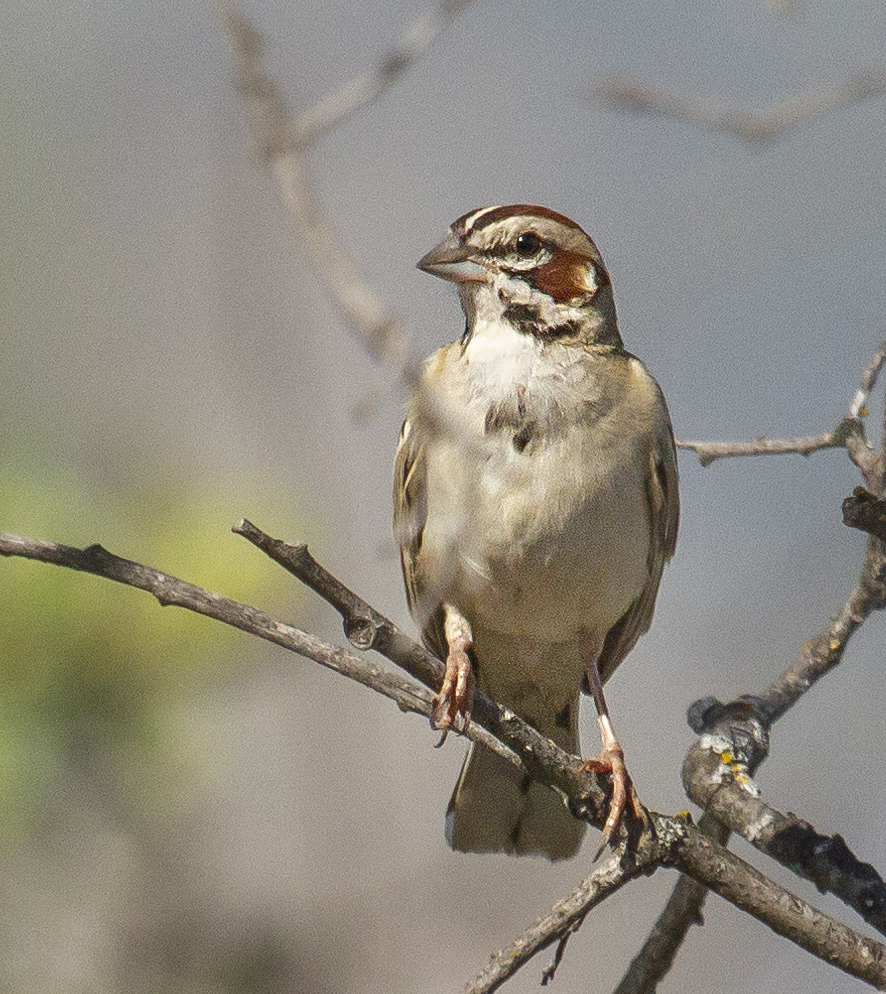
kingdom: Animalia
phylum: Chordata
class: Aves
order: Passeriformes
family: Passerellidae
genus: Chondestes
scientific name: Chondestes grammacus
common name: Lark sparrow
